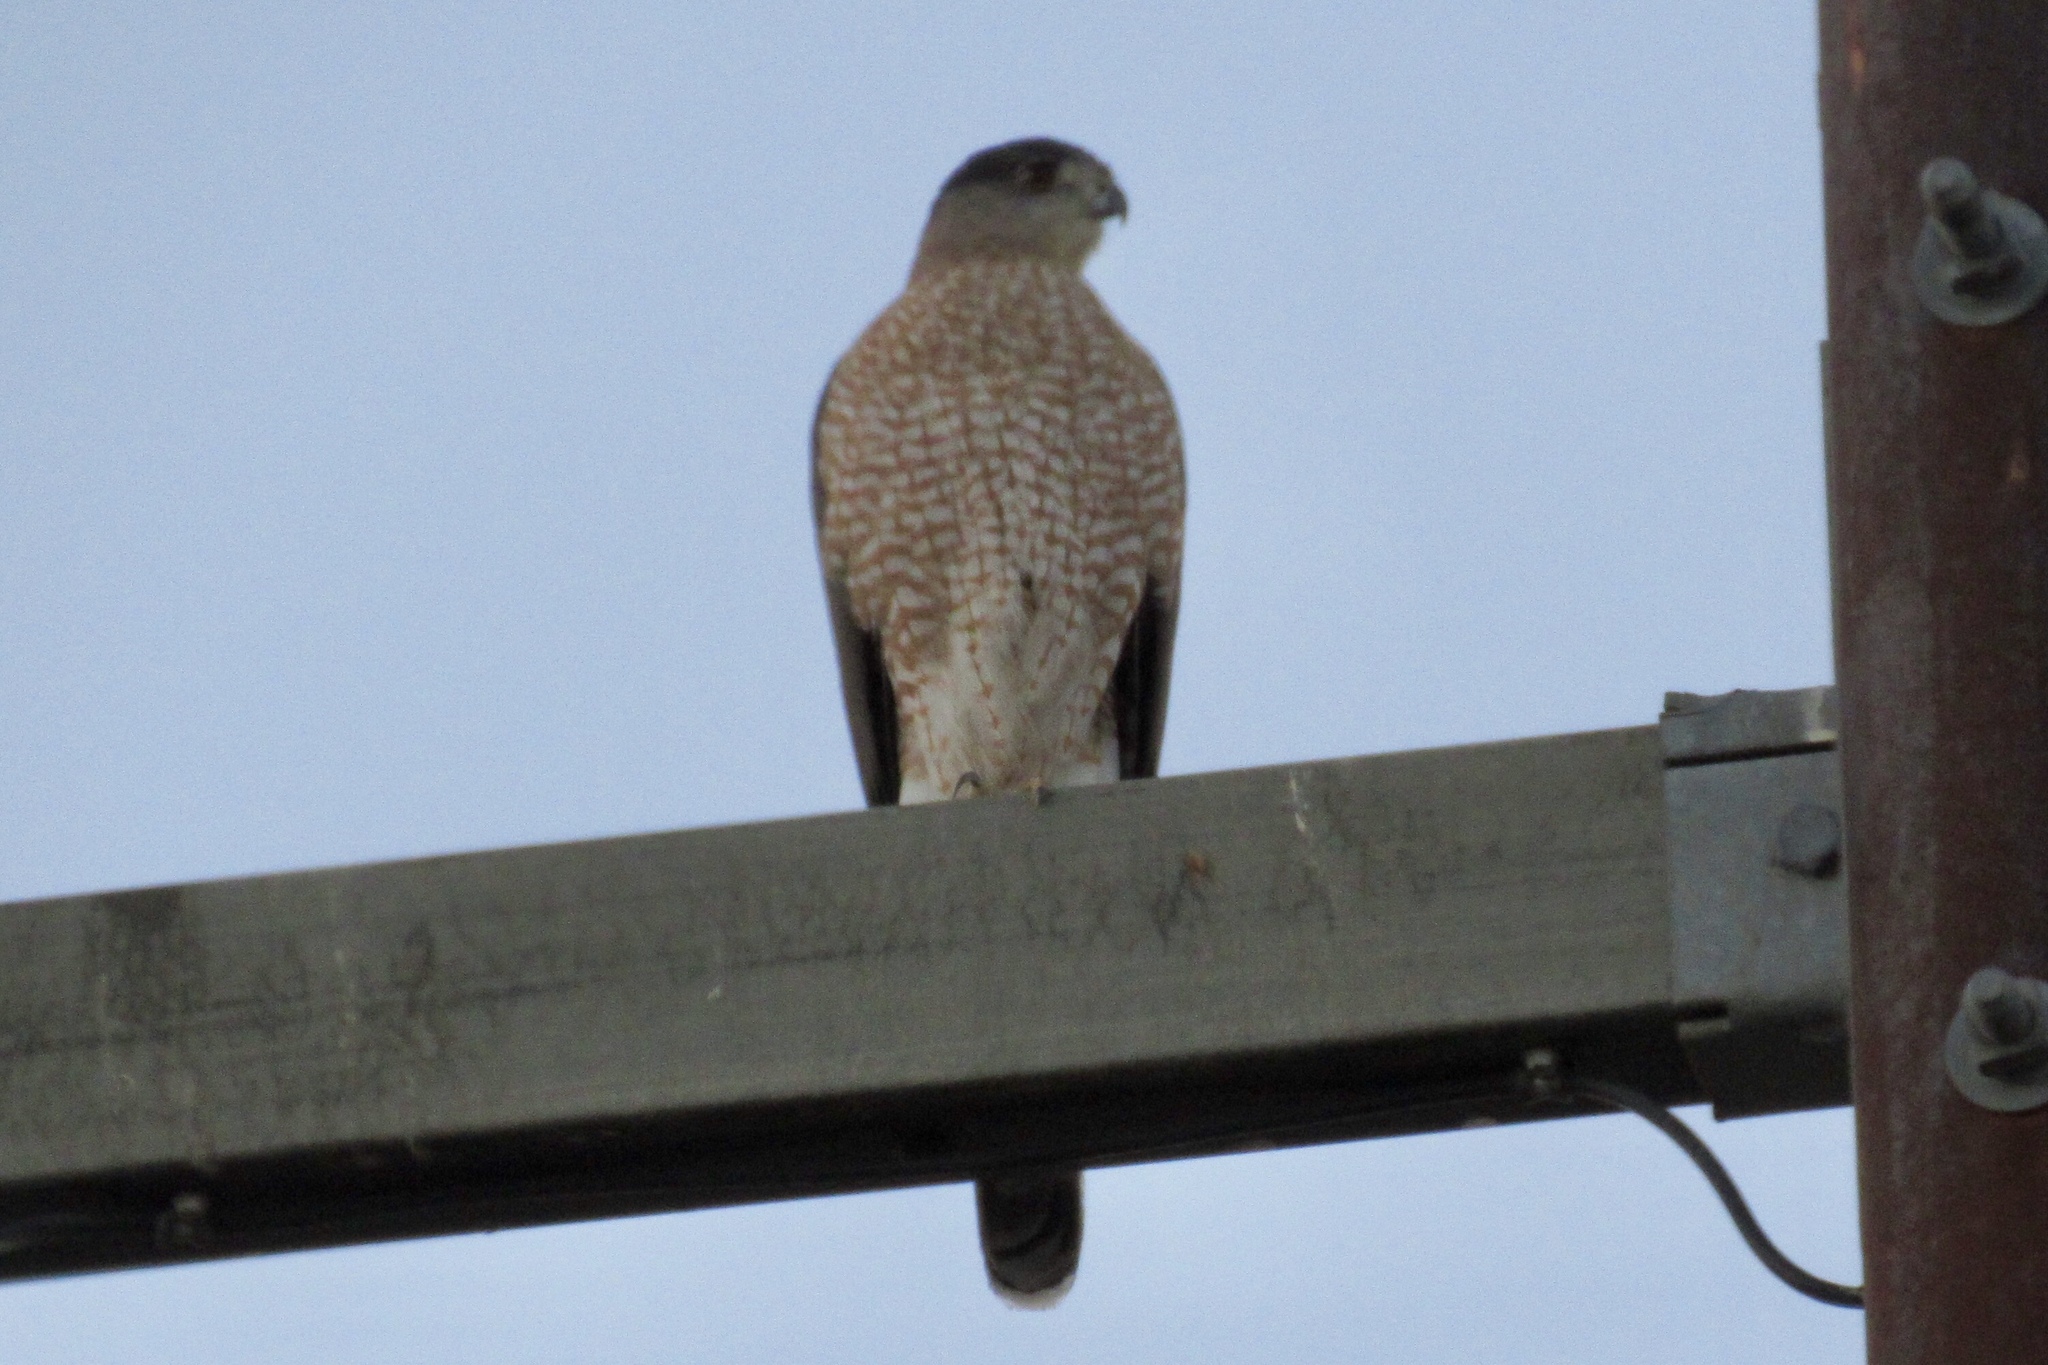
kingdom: Animalia
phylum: Chordata
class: Aves
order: Accipitriformes
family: Accipitridae
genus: Accipiter
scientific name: Accipiter cooperii
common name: Cooper's hawk
